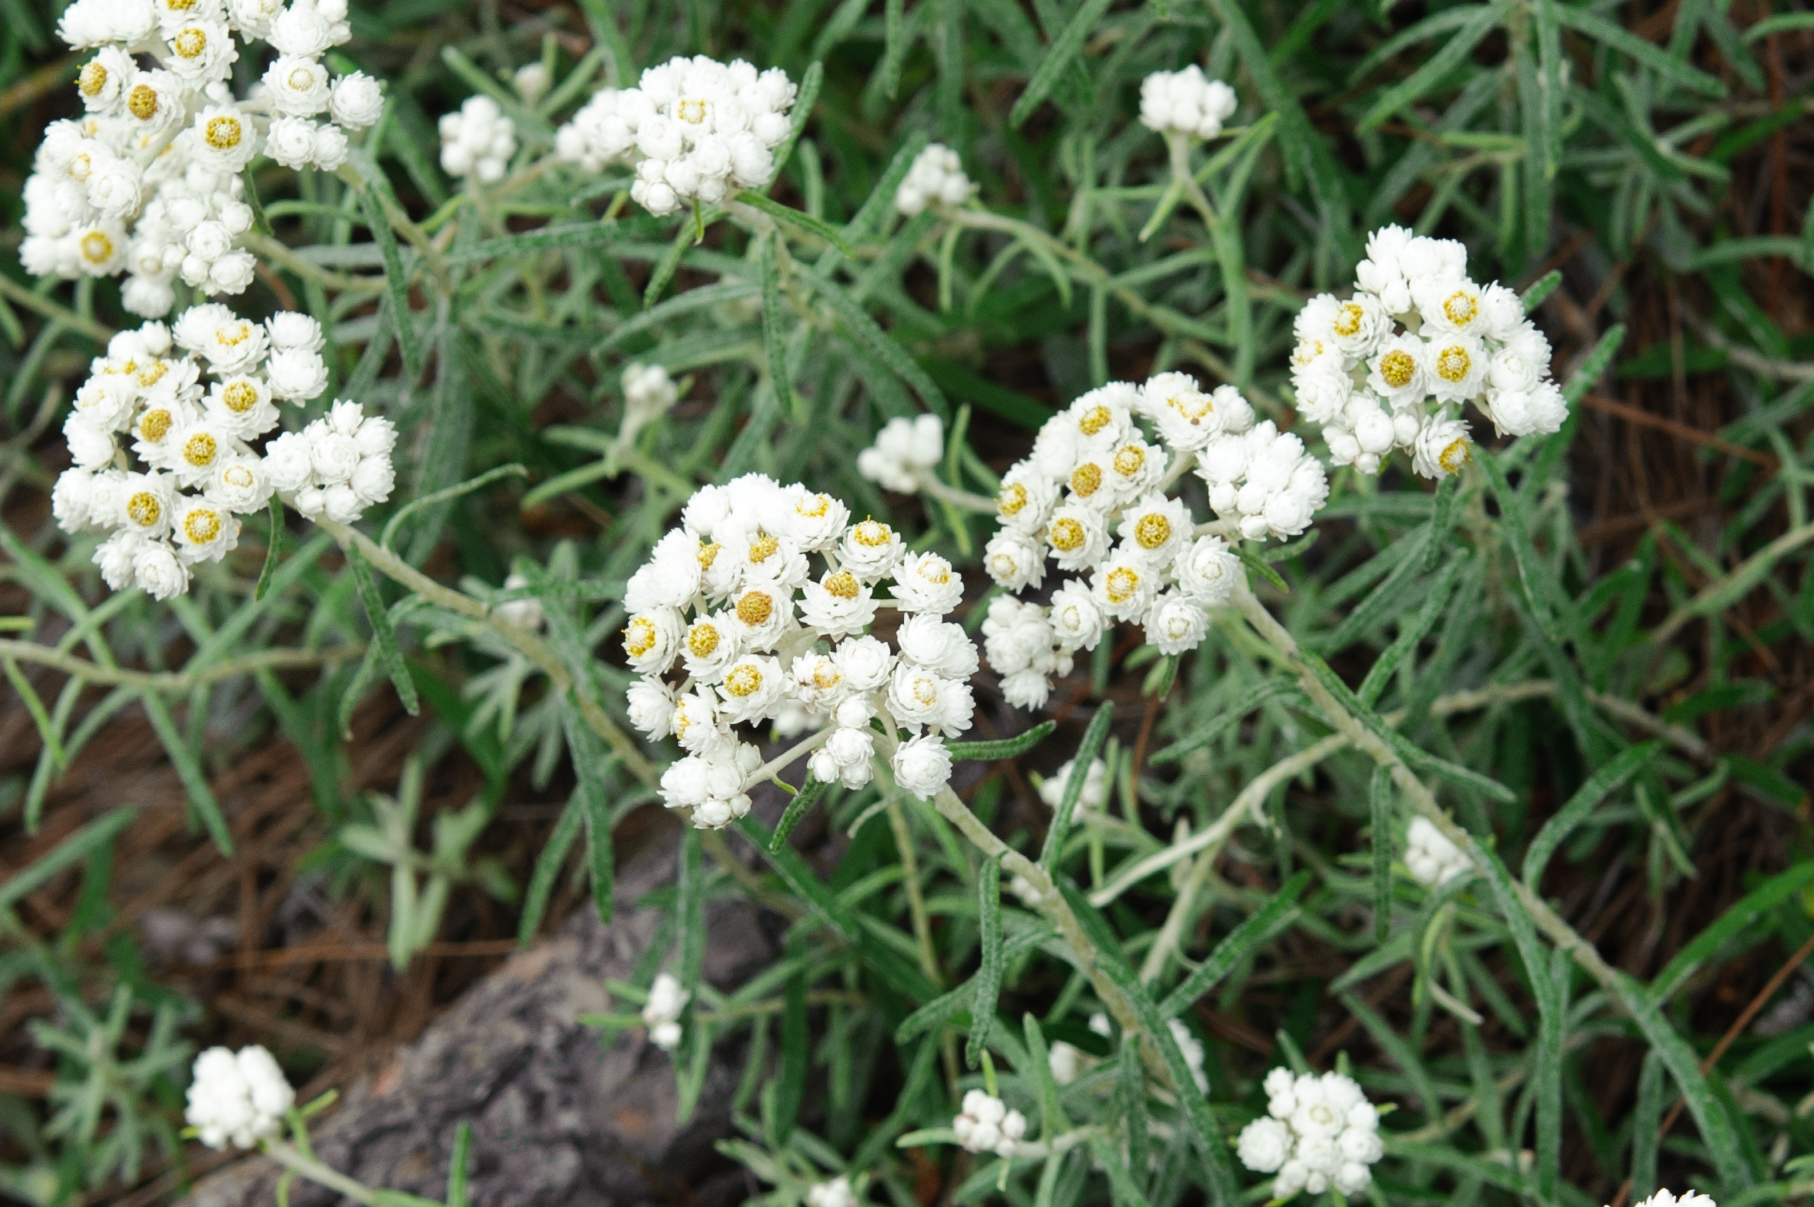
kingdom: Plantae
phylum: Tracheophyta
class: Magnoliopsida
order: Asterales
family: Asteraceae
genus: Anaphalis
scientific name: Anaphalis morrisonicola
